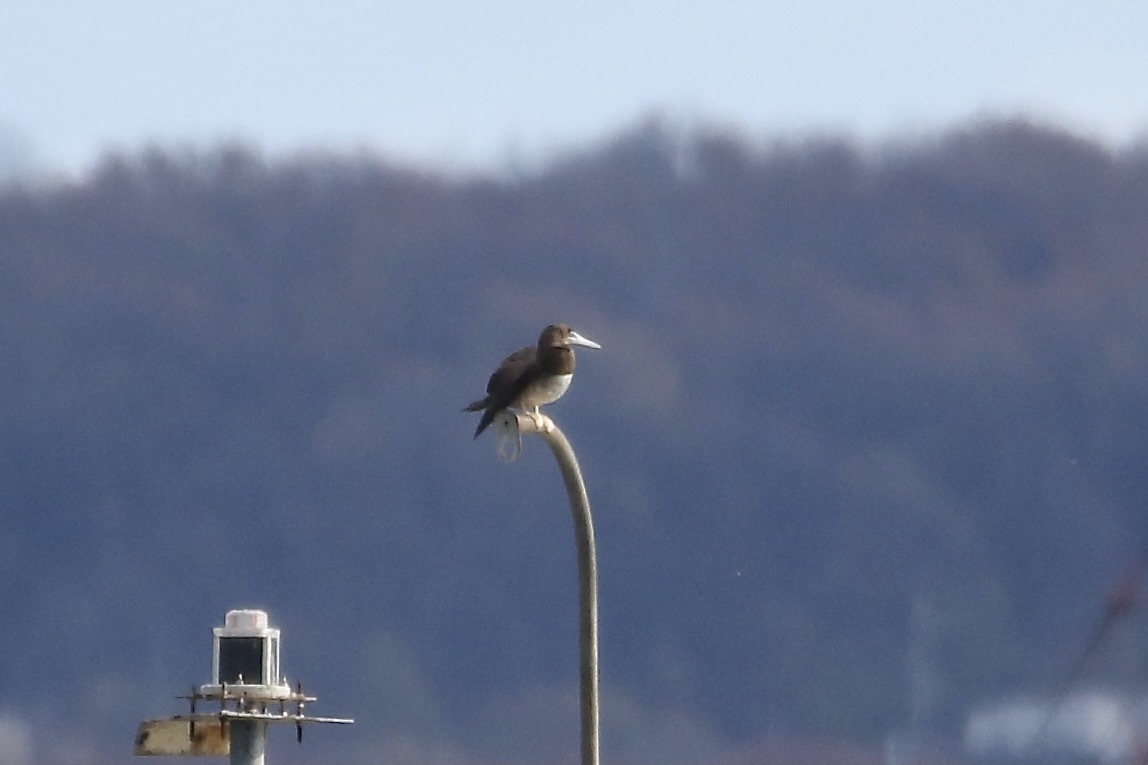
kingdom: Animalia
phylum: Chordata
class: Aves
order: Suliformes
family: Sulidae
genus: Sula
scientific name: Sula leucogaster
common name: Brown booby
